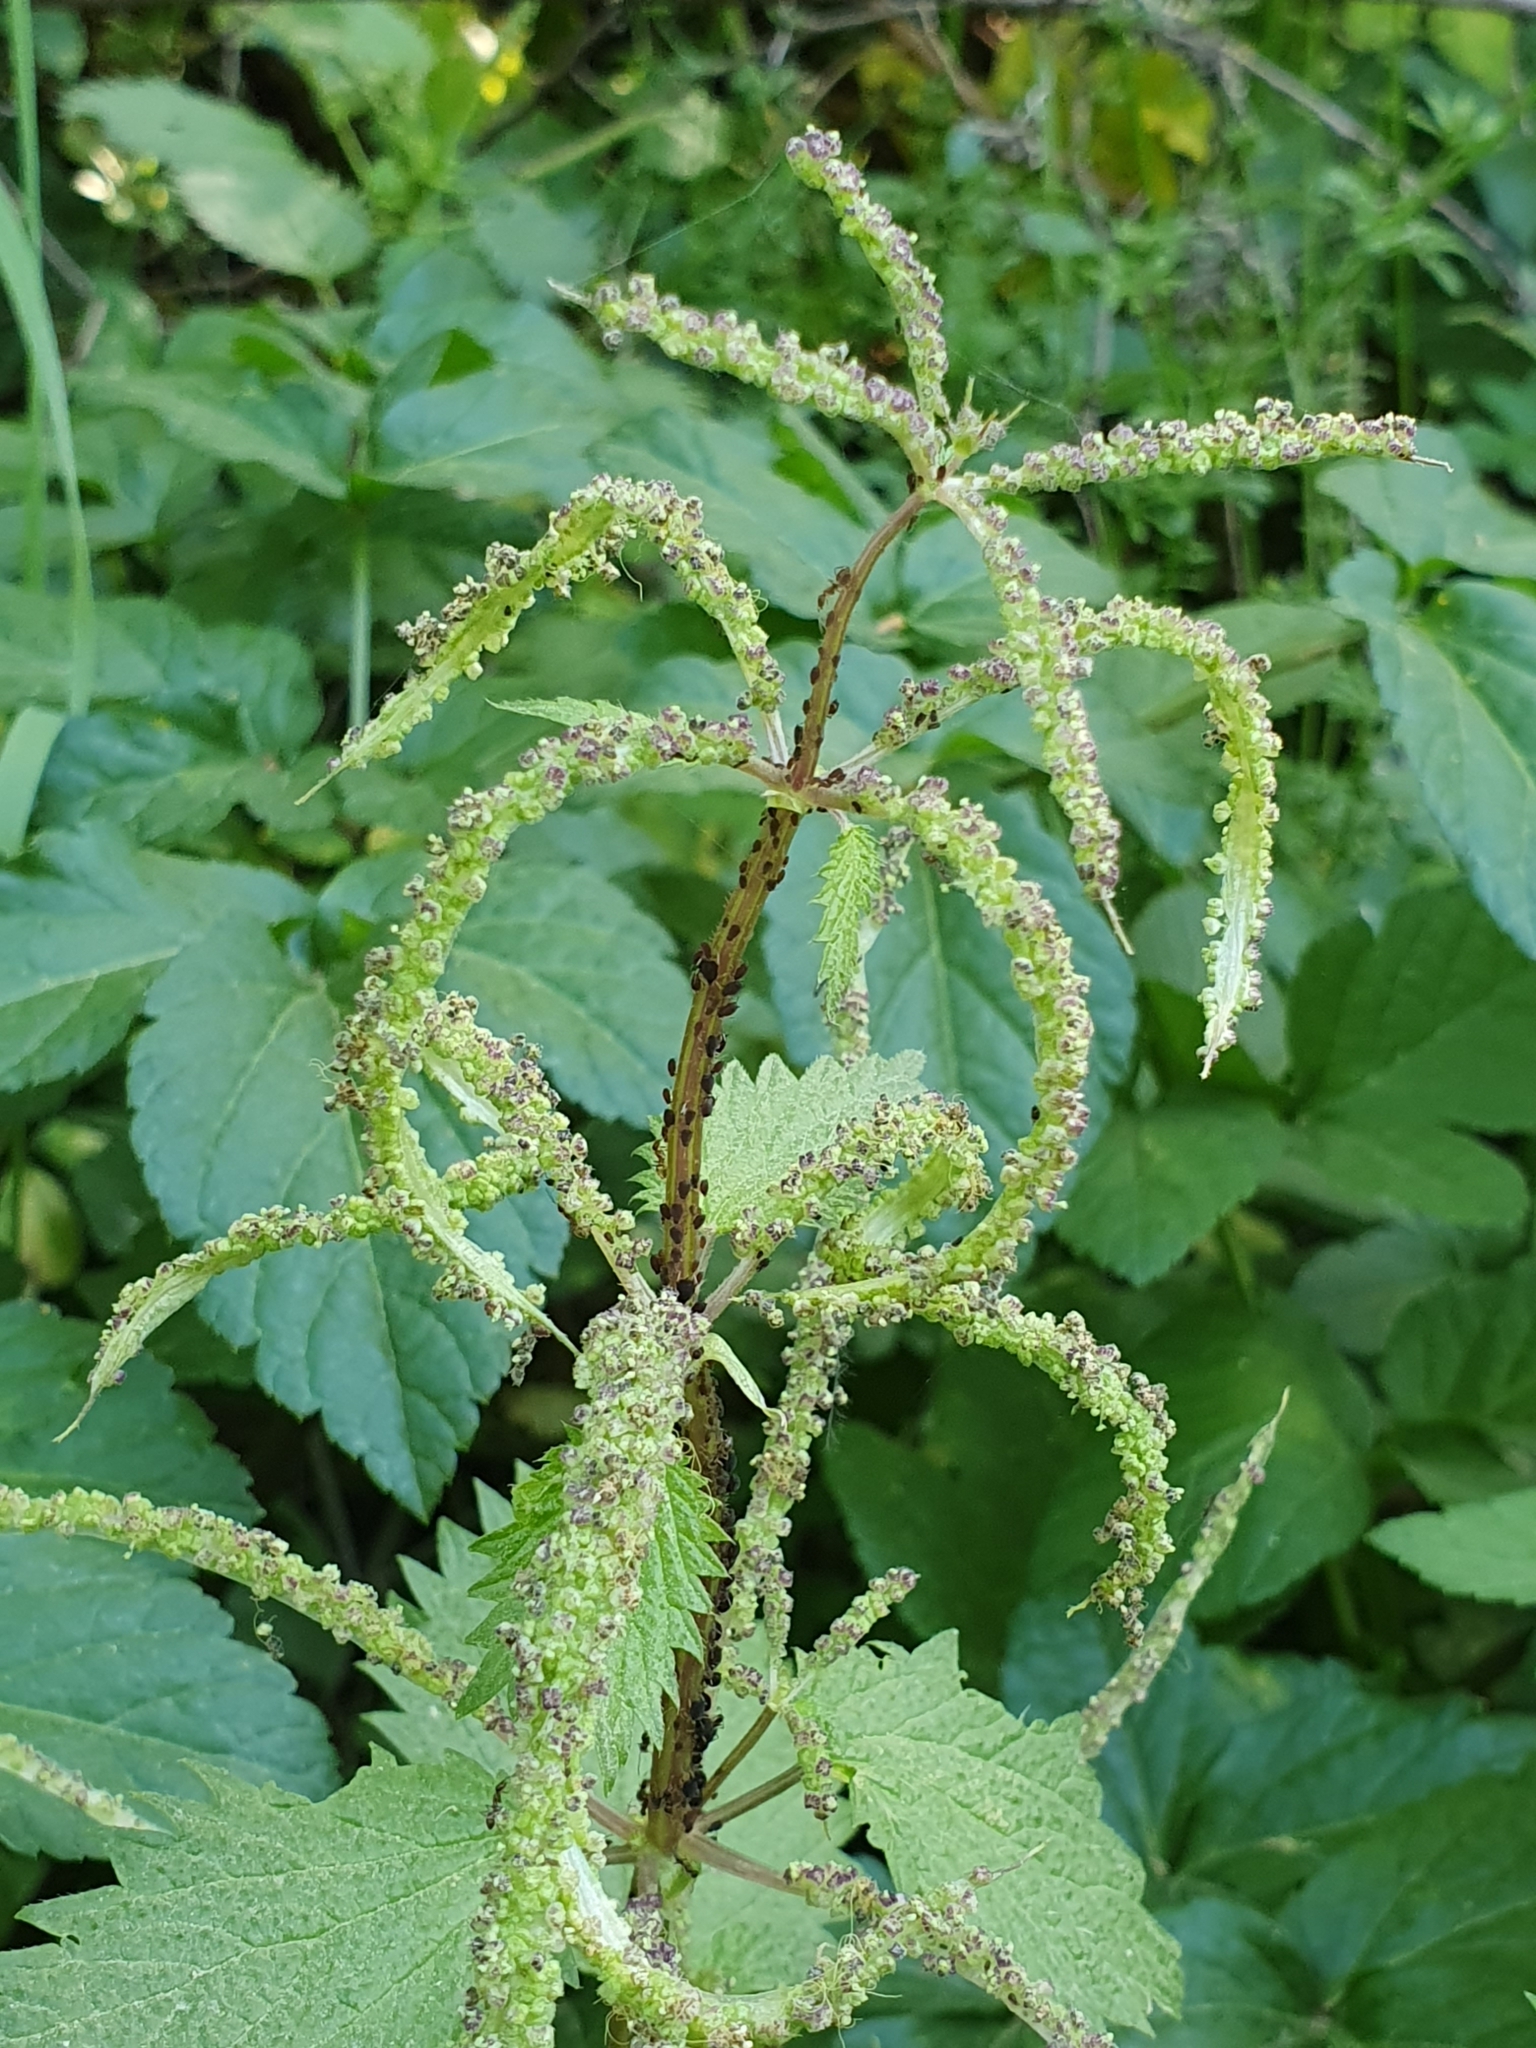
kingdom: Plantae
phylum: Tracheophyta
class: Magnoliopsida
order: Rosales
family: Urticaceae
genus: Urtica
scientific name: Urtica membranacea
